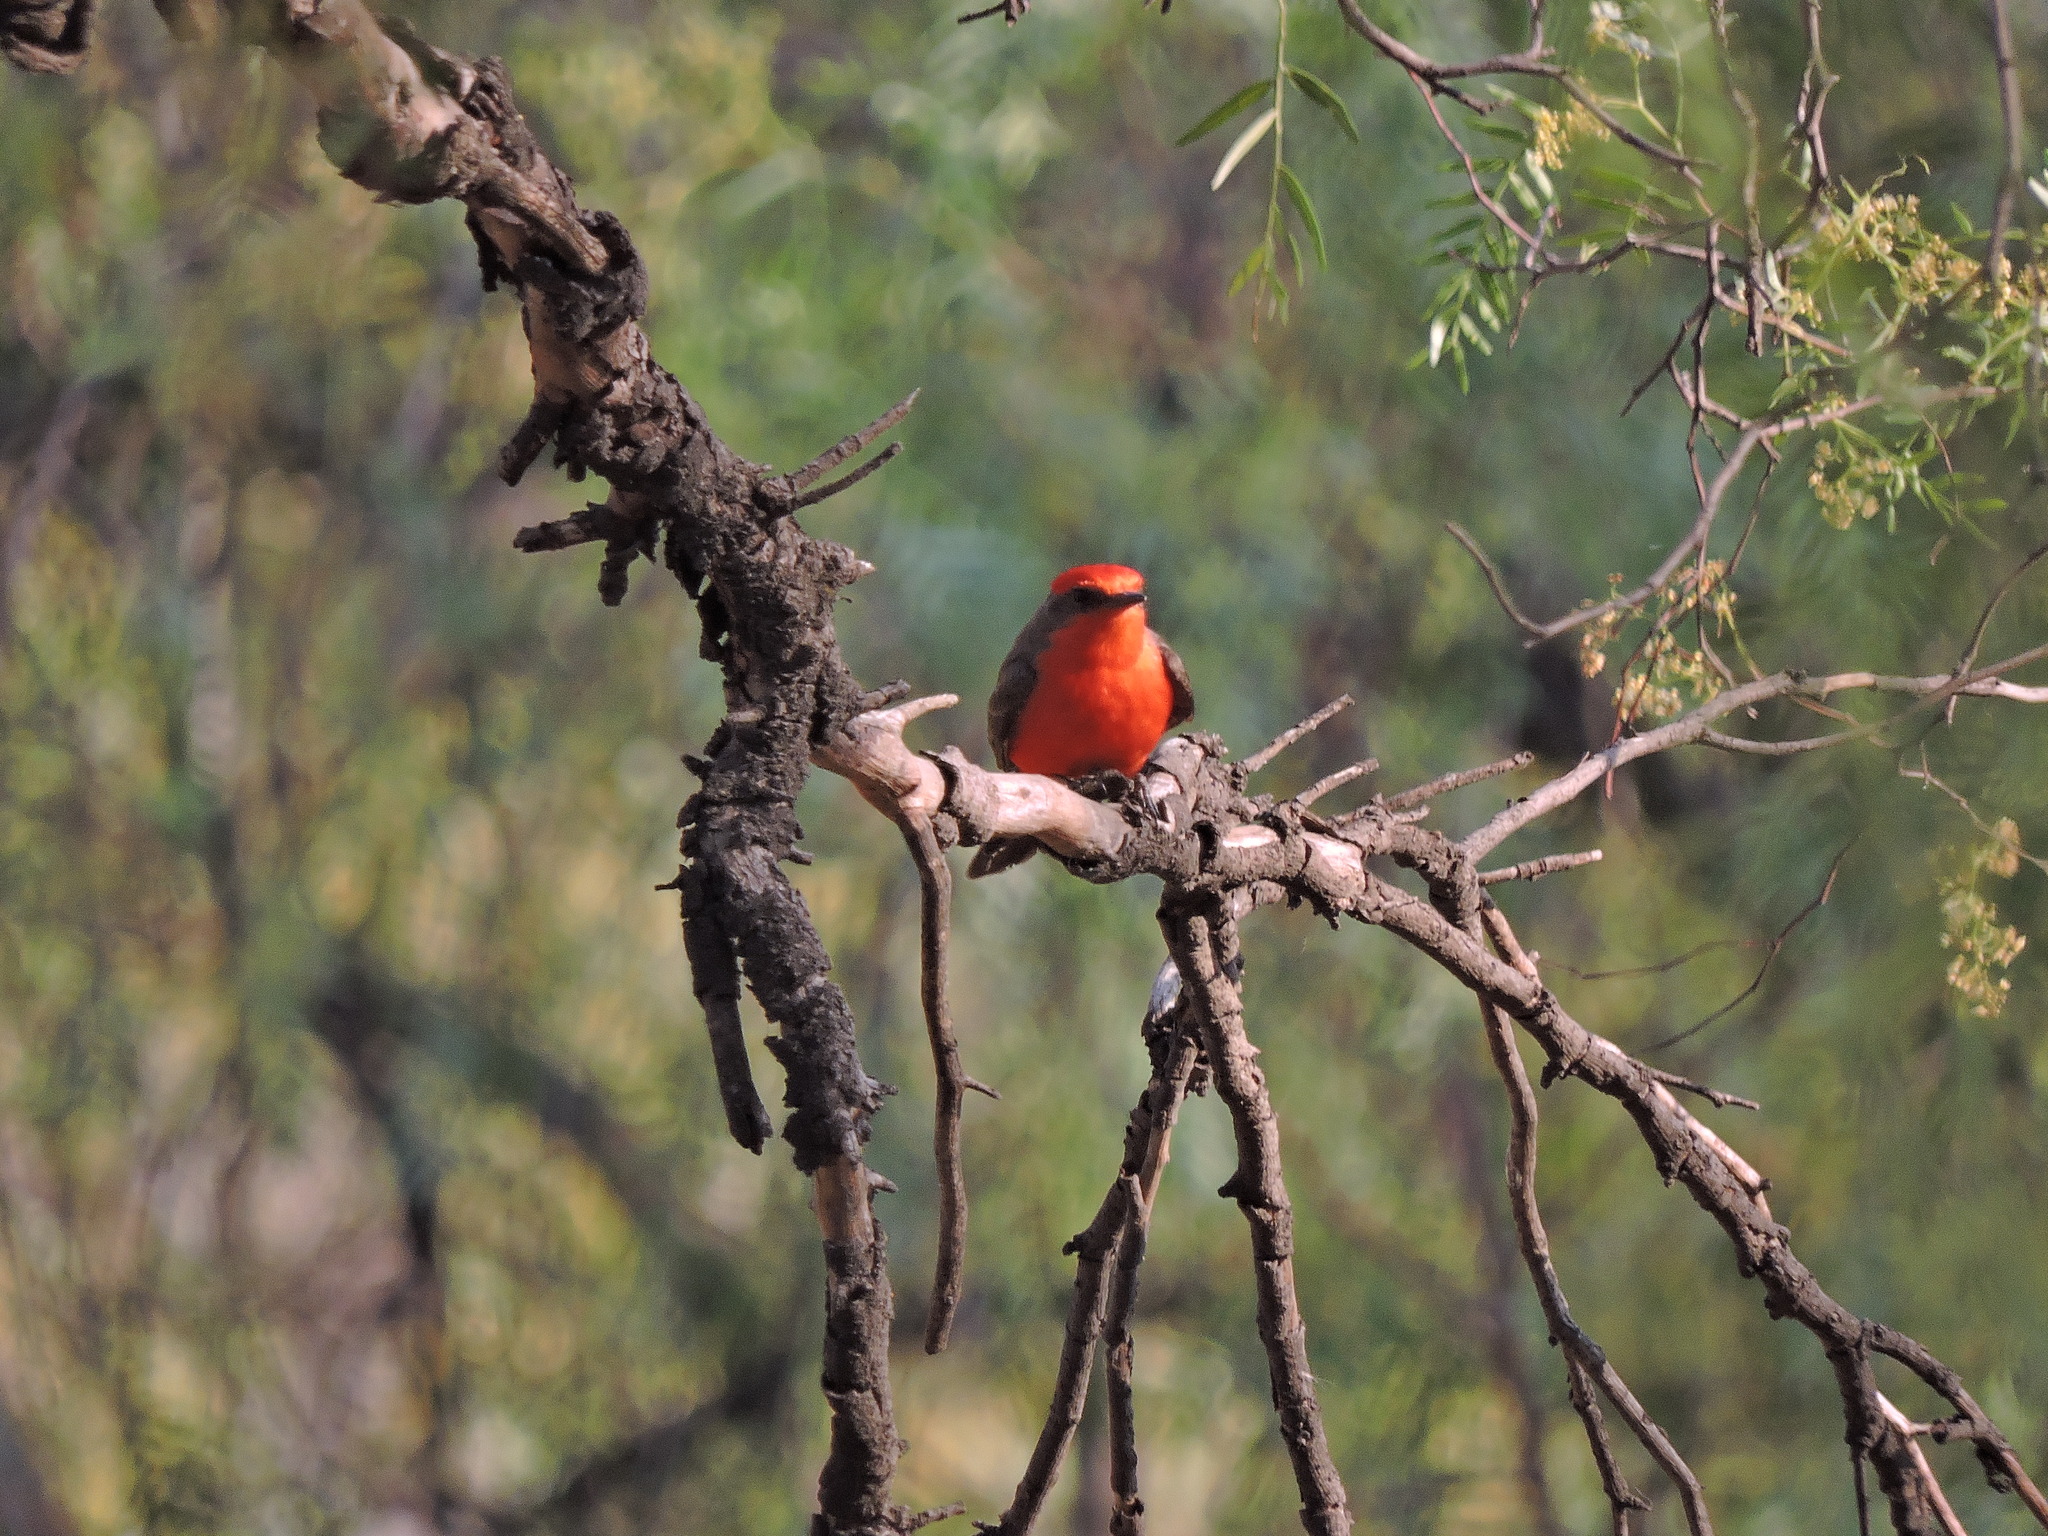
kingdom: Animalia
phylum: Chordata
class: Aves
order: Passeriformes
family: Tyrannidae
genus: Pyrocephalus
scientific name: Pyrocephalus rubinus
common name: Vermilion flycatcher
